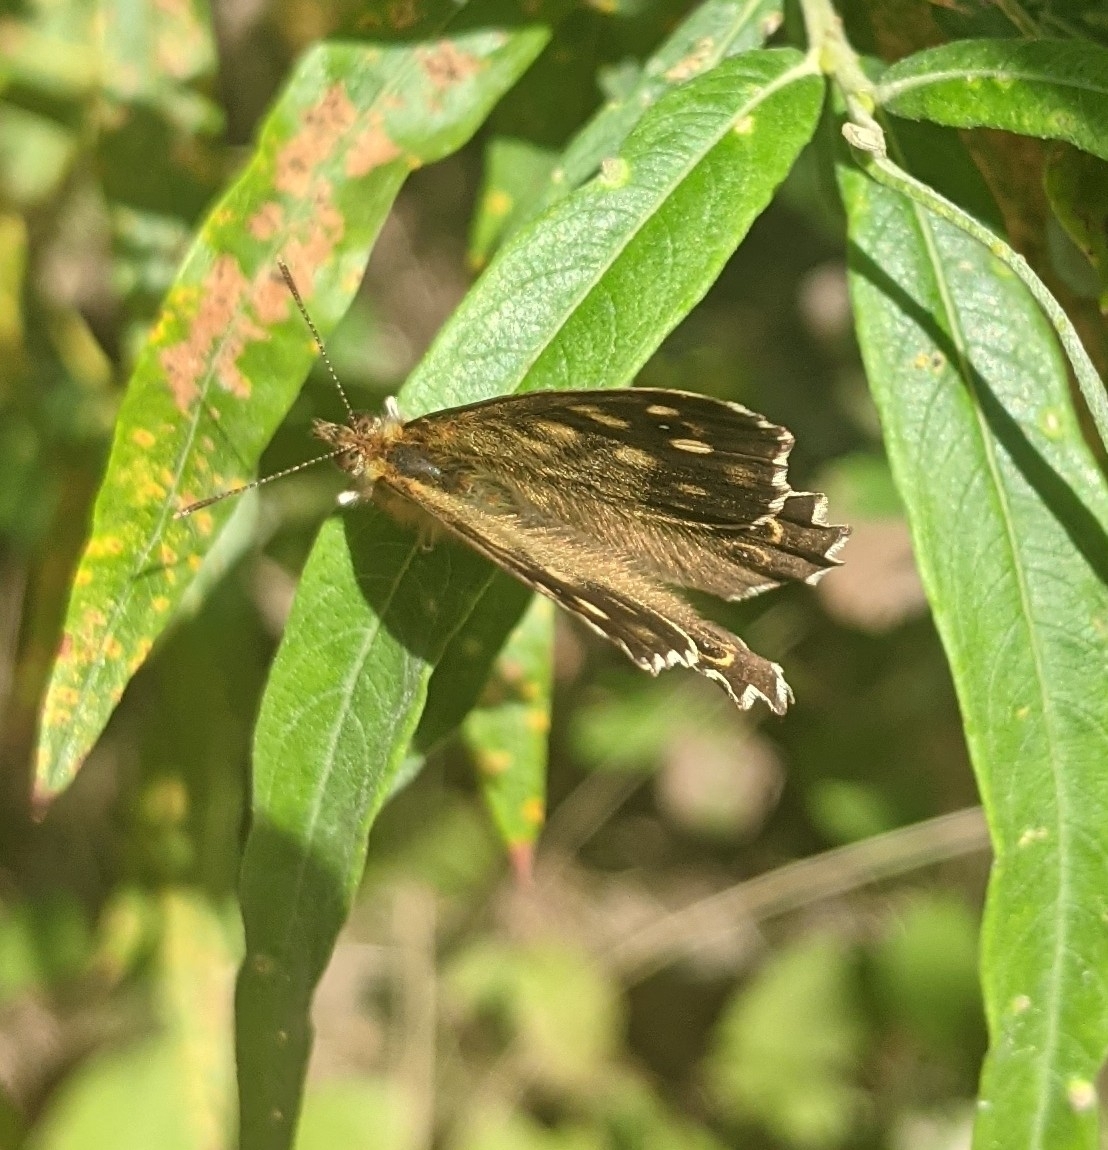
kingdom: Animalia
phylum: Arthropoda
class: Insecta
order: Lepidoptera
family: Nymphalidae
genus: Pararge
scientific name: Pararge aegeria
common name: Speckled wood
